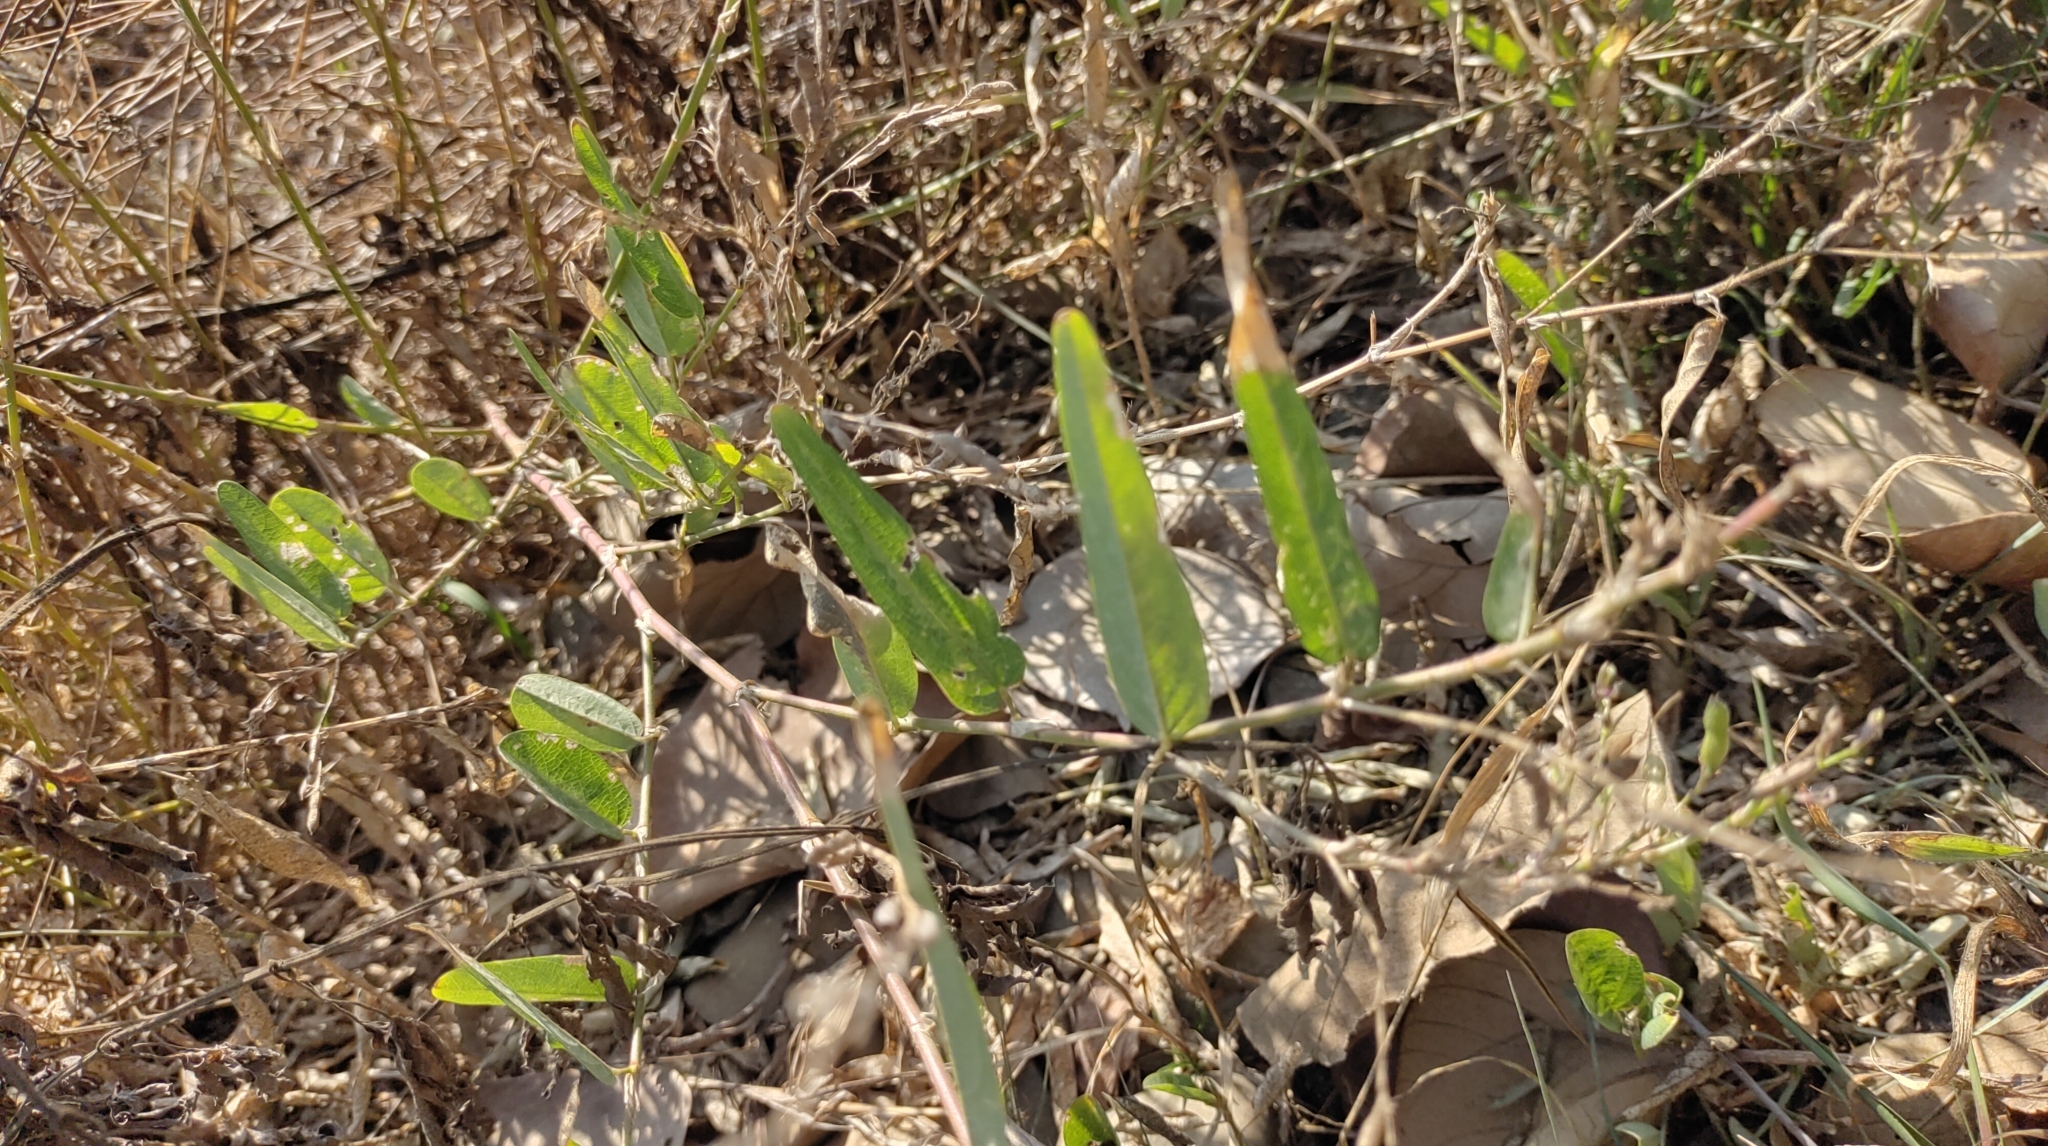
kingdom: Plantae
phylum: Tracheophyta
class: Magnoliopsida
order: Fabales
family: Fabaceae
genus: Alysicarpus
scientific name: Alysicarpus ovalifolius
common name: Alyce clover
